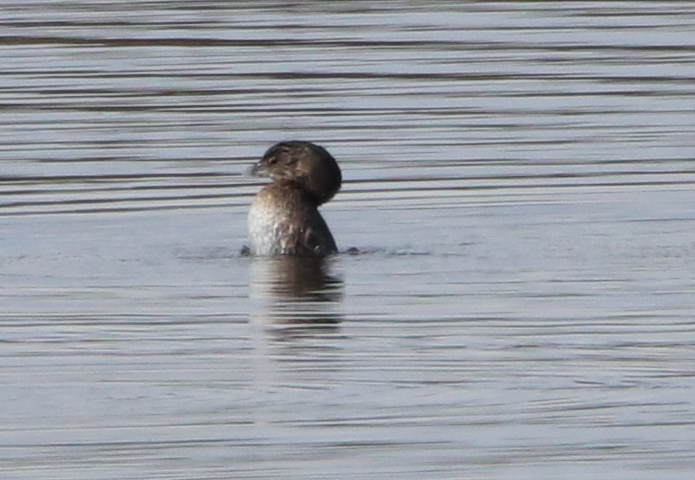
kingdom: Animalia
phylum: Chordata
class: Aves
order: Podicipediformes
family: Podicipedidae
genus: Podilymbus
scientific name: Podilymbus podiceps
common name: Pied-billed grebe
